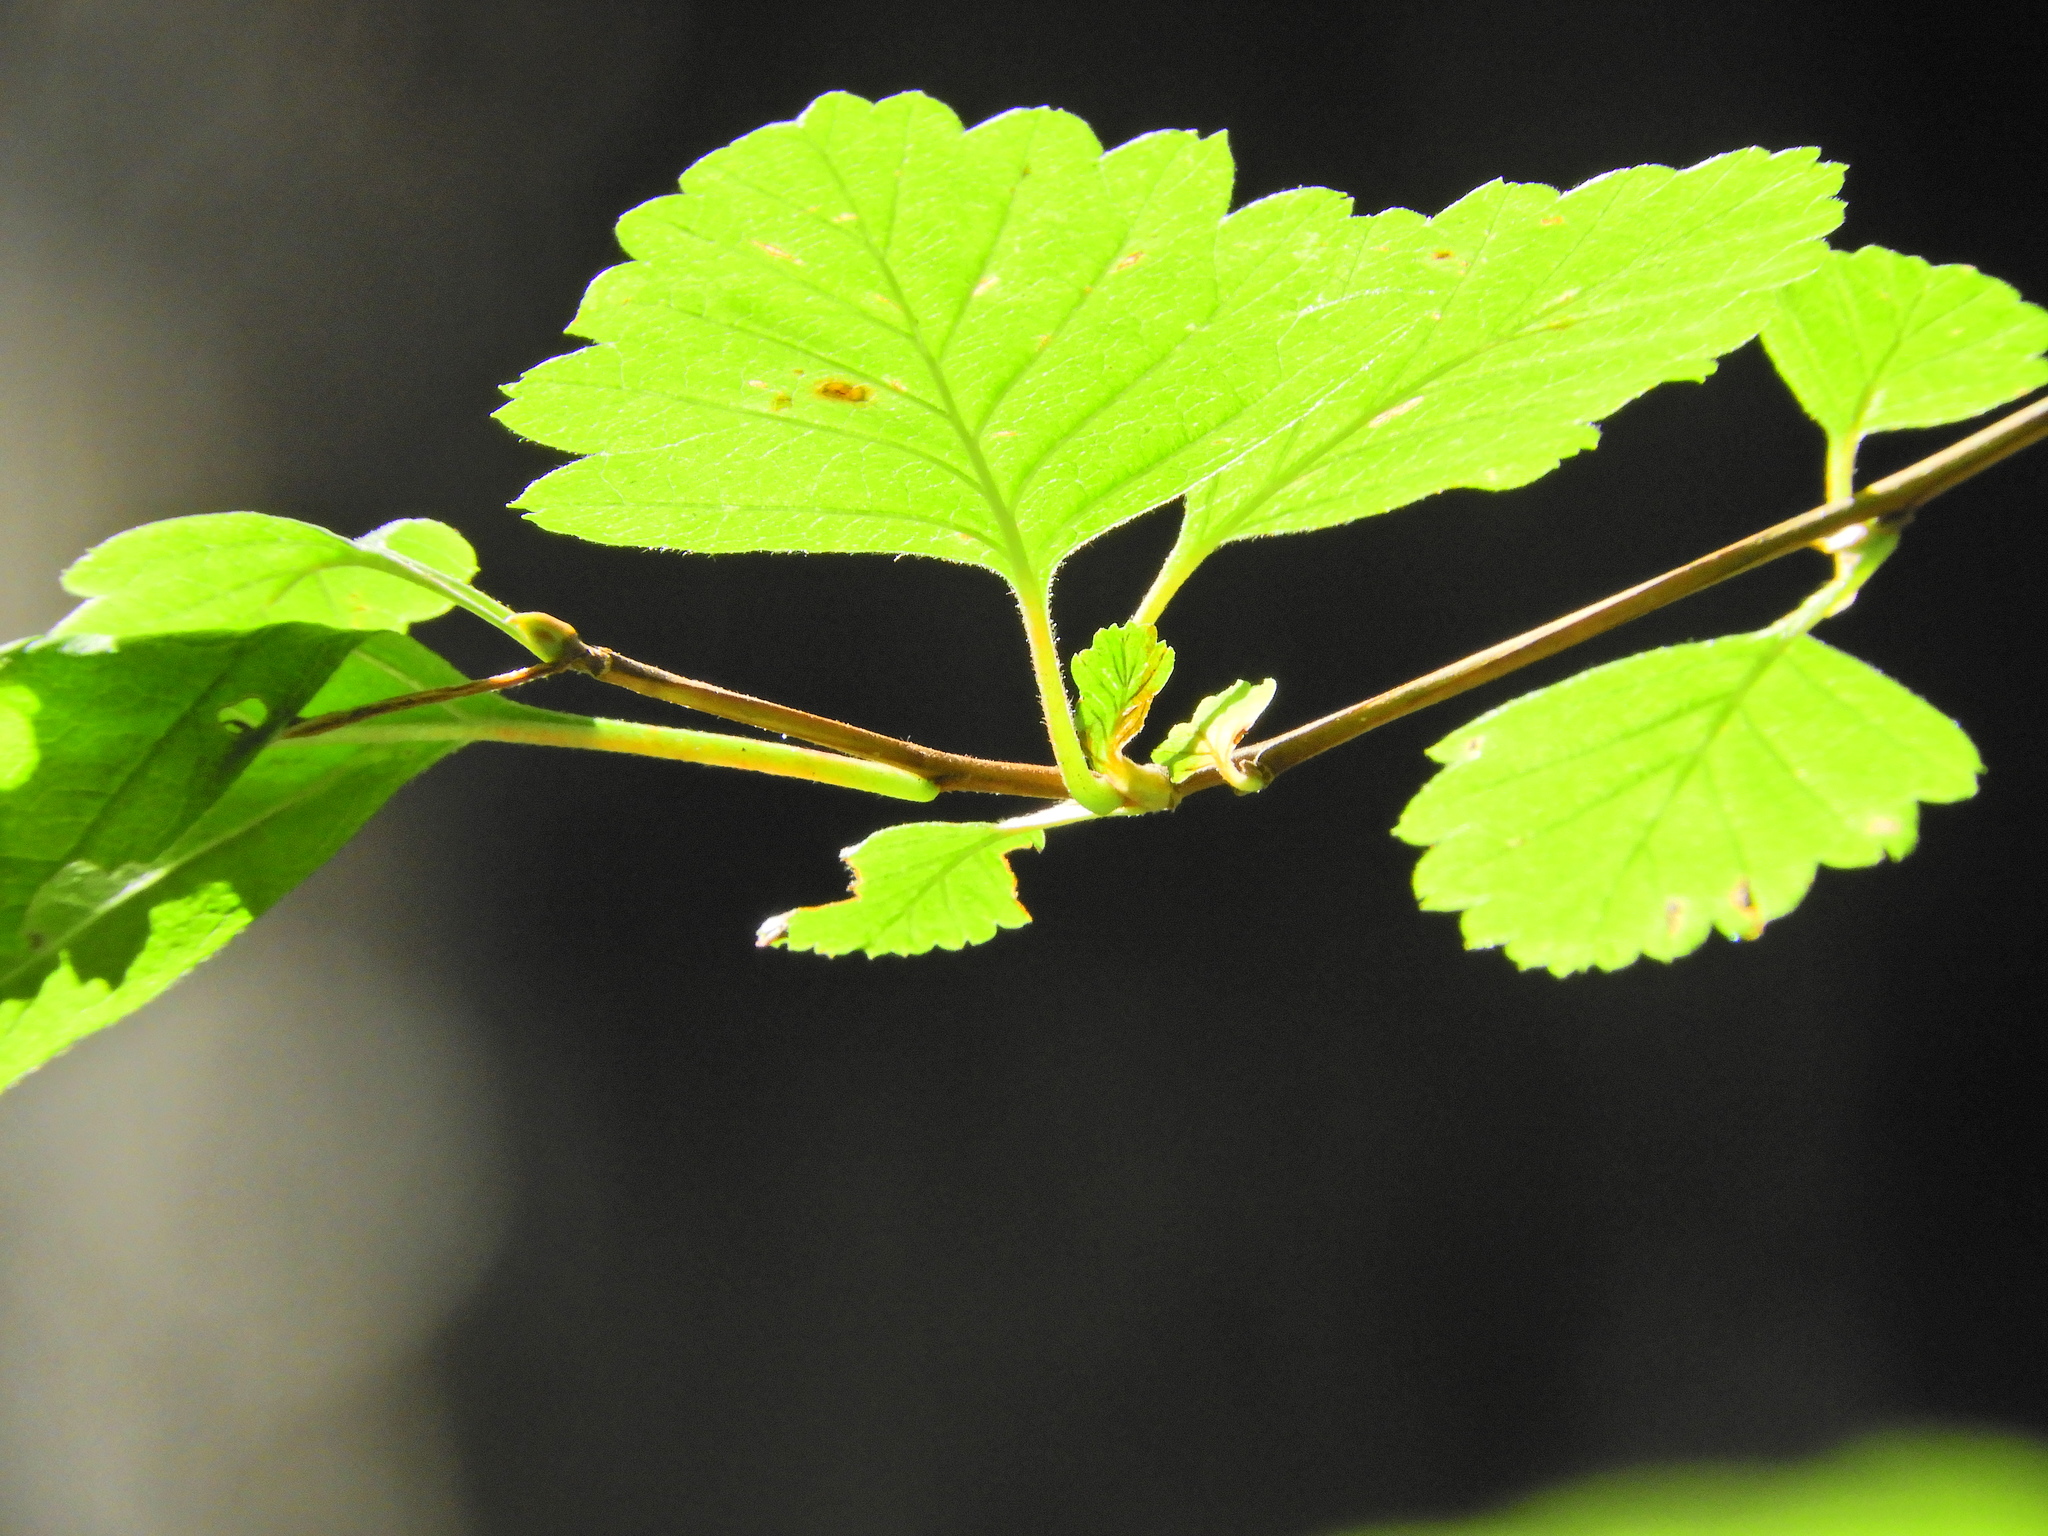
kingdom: Plantae
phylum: Tracheophyta
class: Magnoliopsida
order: Rosales
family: Rosaceae
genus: Holodiscus
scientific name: Holodiscus discolor
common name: Oceanspray
